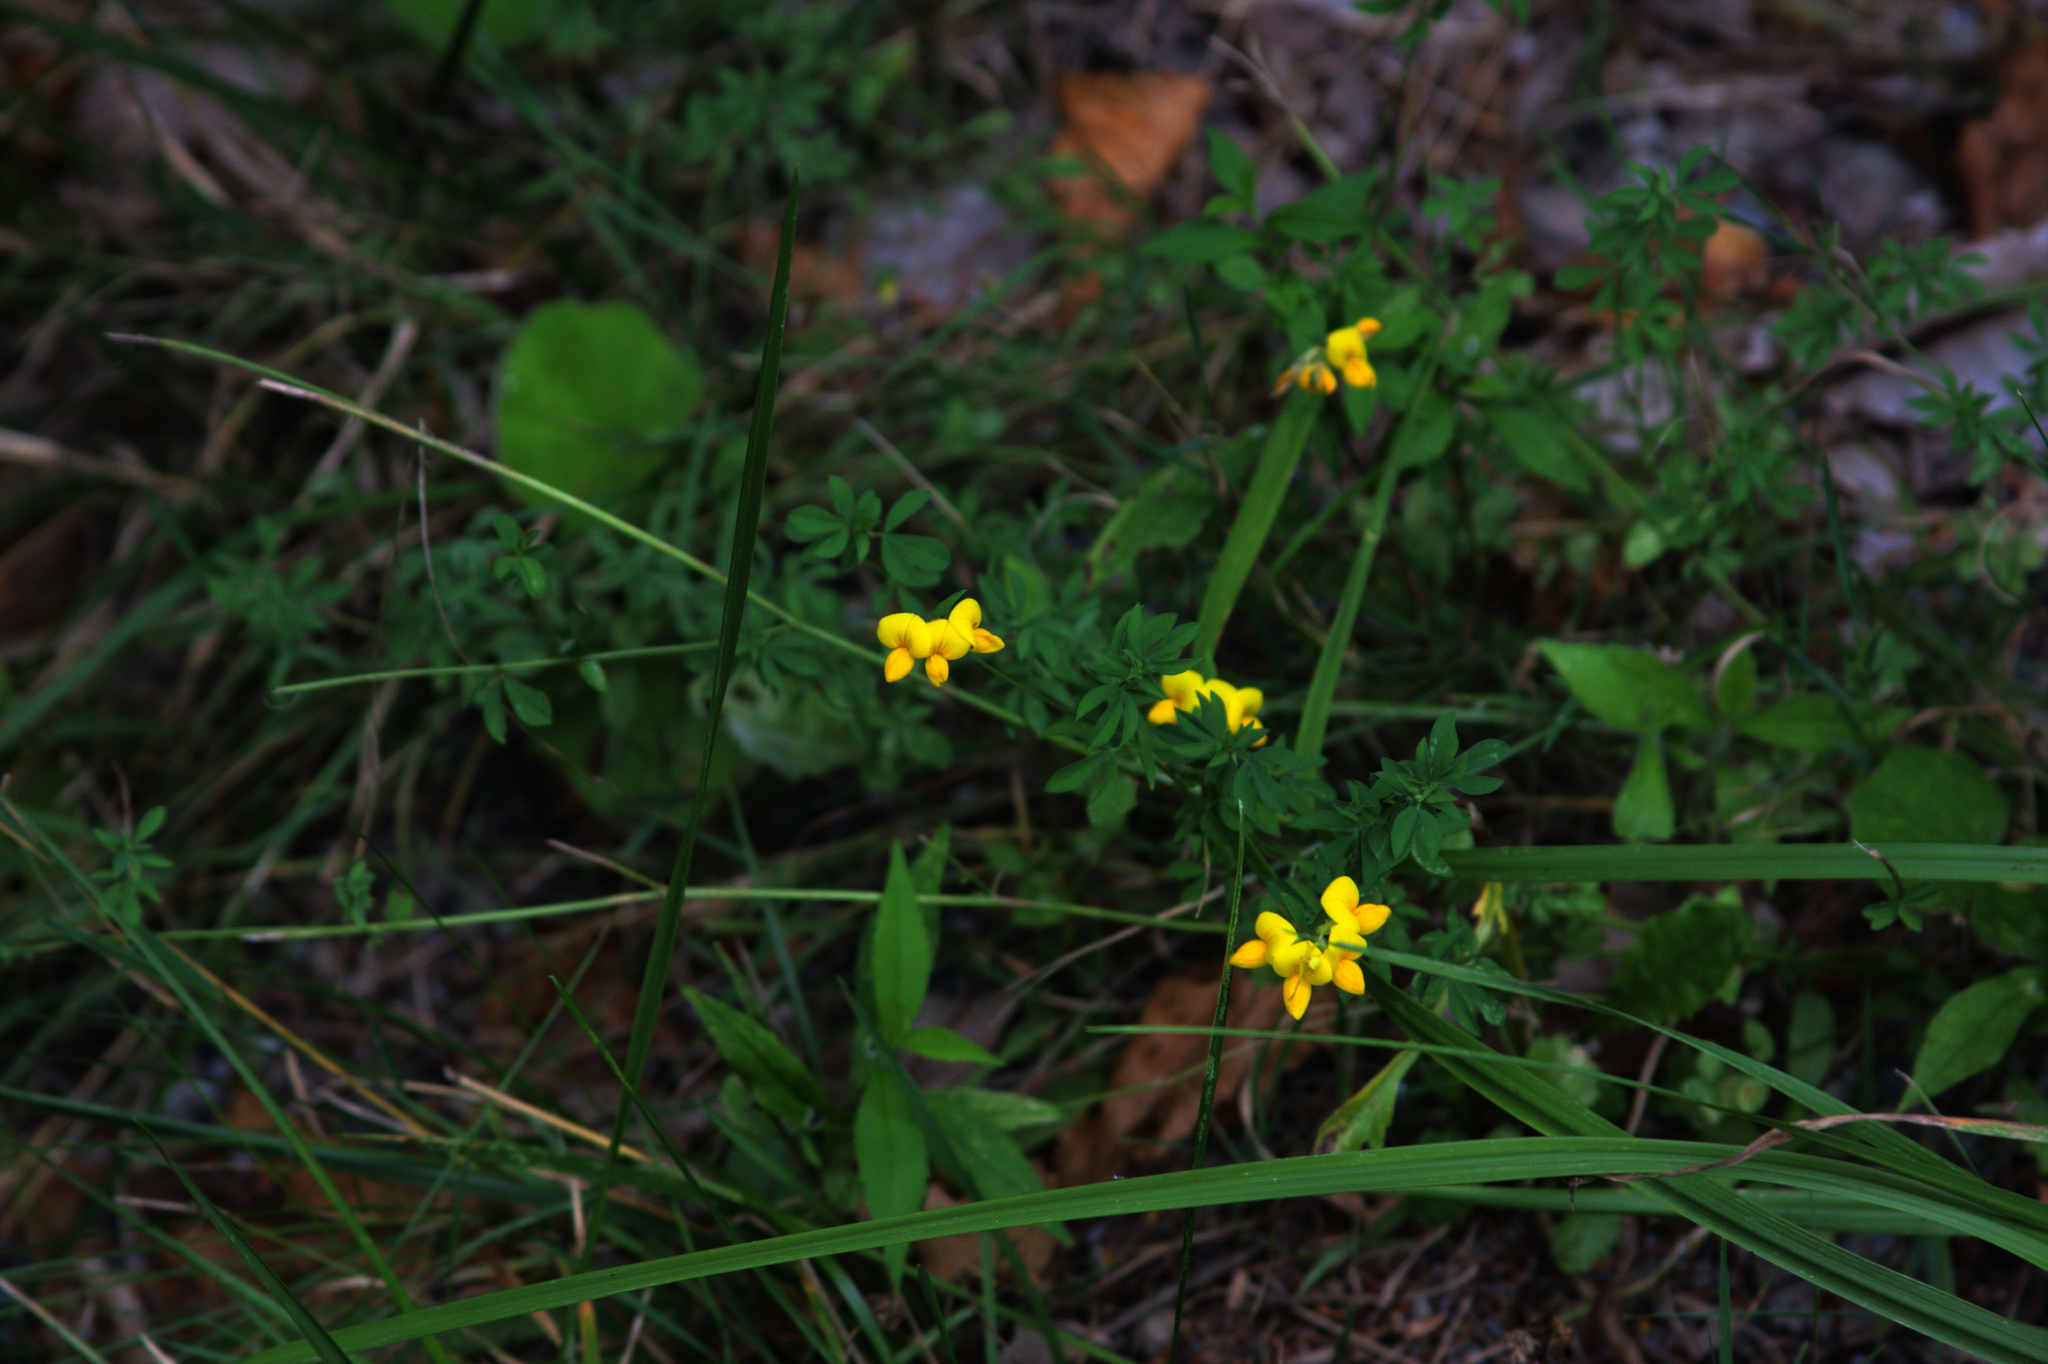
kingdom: Plantae
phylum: Tracheophyta
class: Magnoliopsida
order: Fabales
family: Fabaceae
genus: Lotus
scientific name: Lotus corniculatus
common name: Common bird's-foot-trefoil
